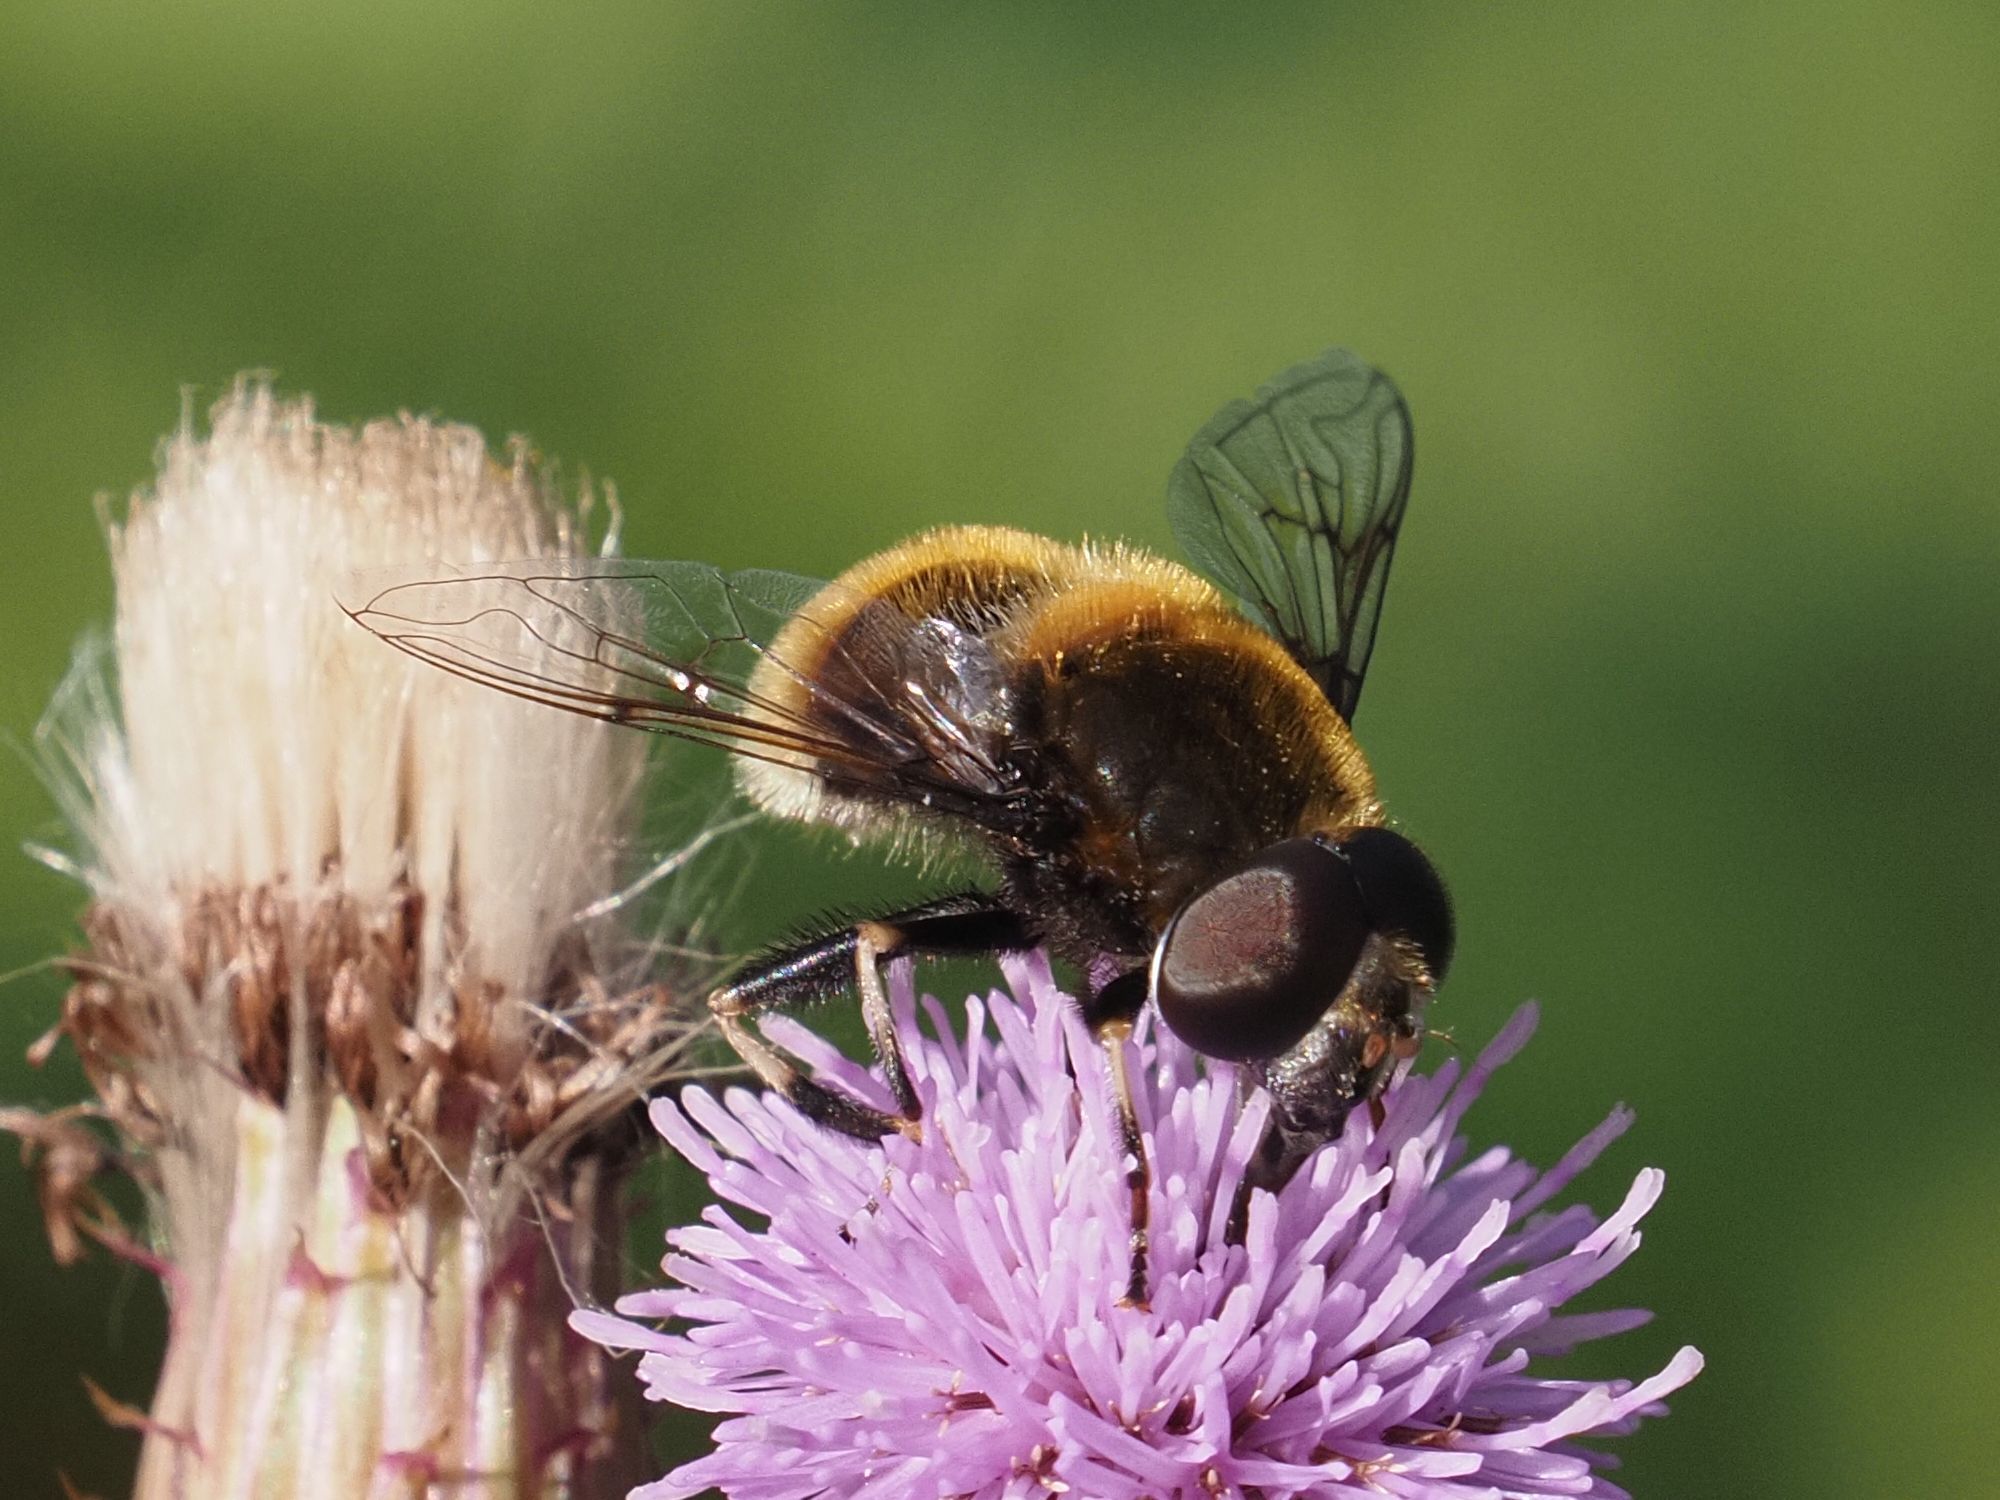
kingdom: Animalia
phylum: Arthropoda
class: Insecta
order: Diptera
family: Syrphidae
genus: Eristalis
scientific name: Eristalis intricaria
